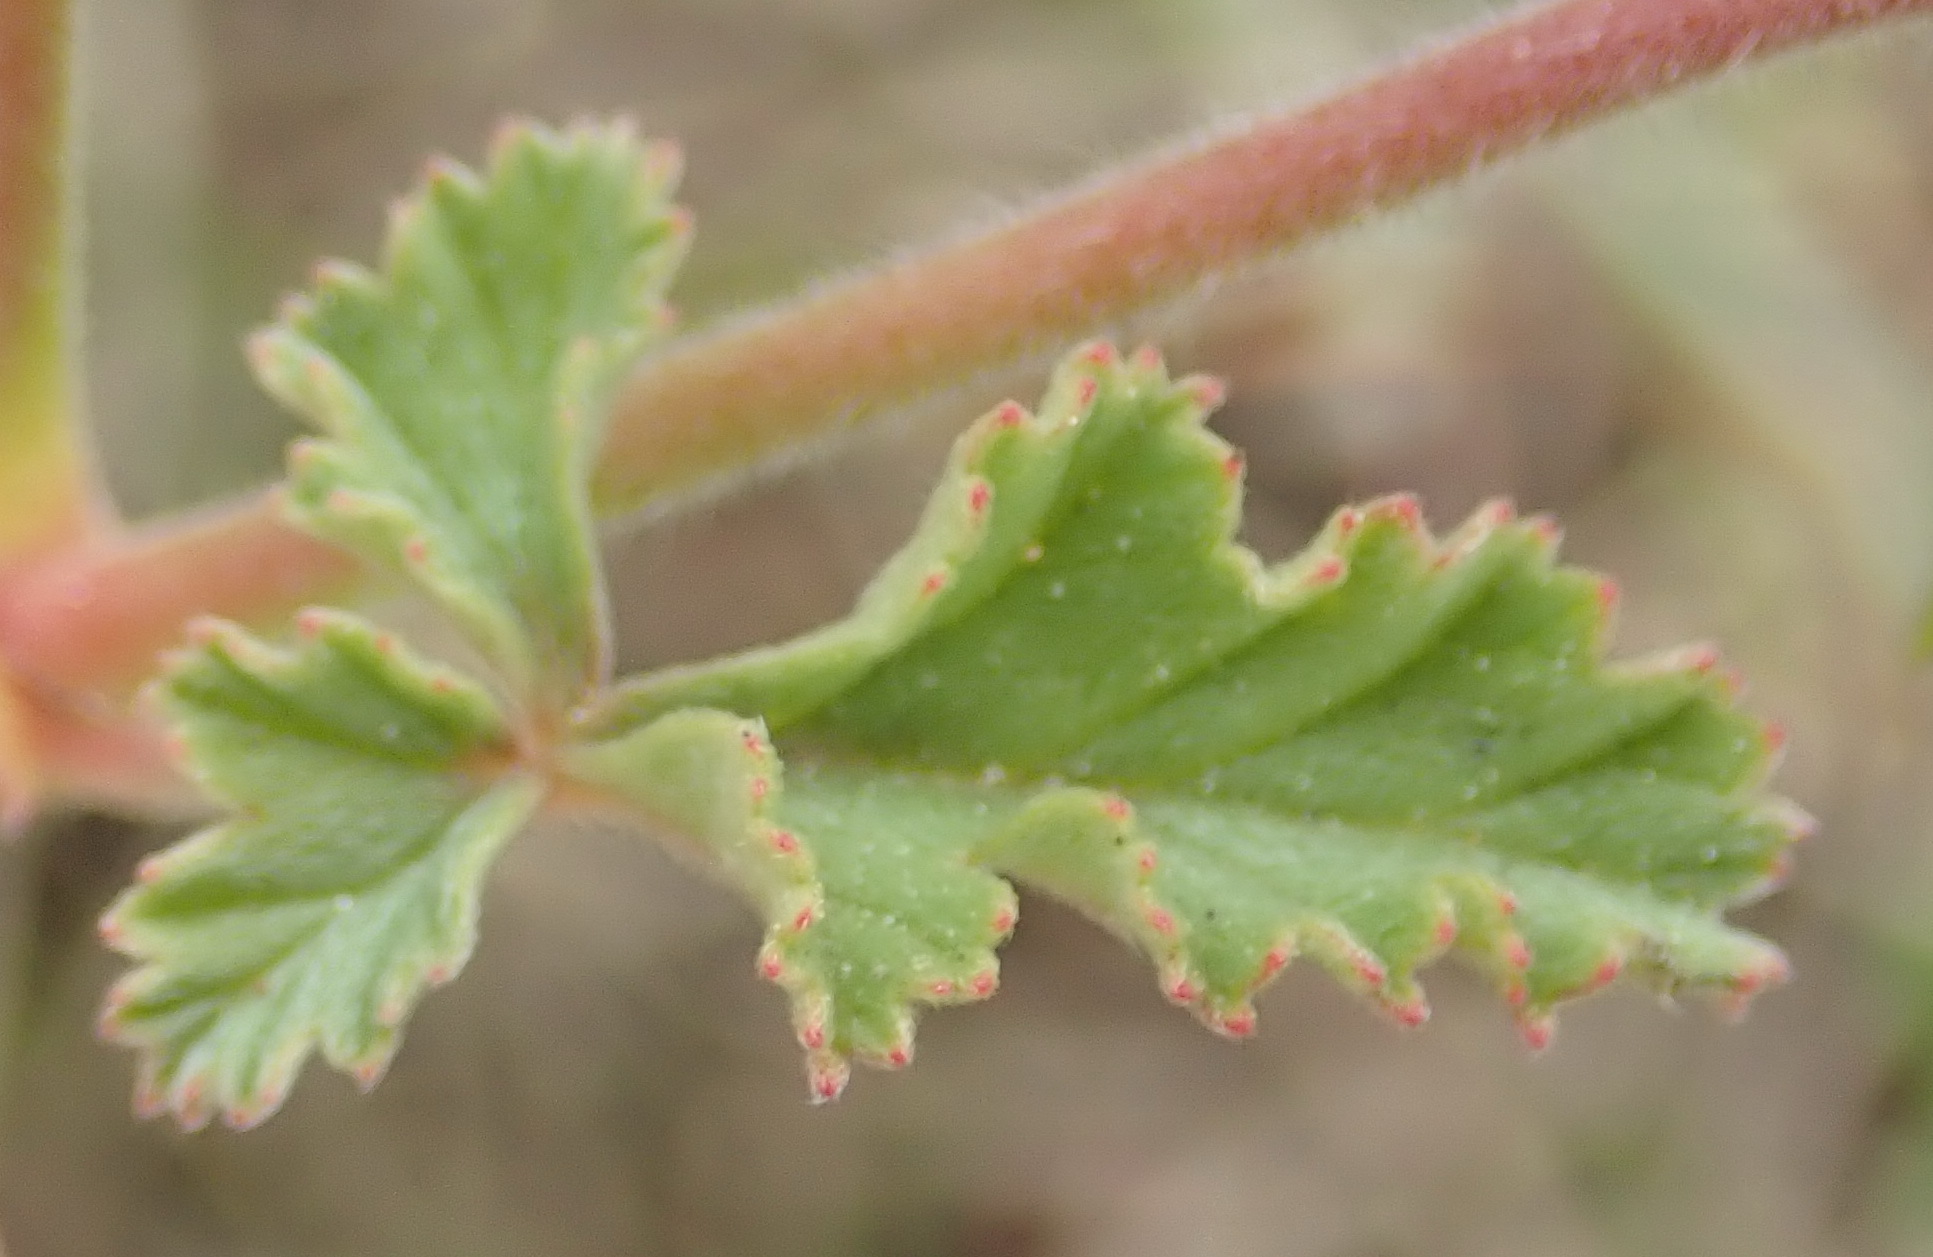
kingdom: Plantae
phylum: Tracheophyta
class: Magnoliopsida
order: Geraniales
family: Geraniaceae
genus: Pelargonium
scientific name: Pelargonium candicans
